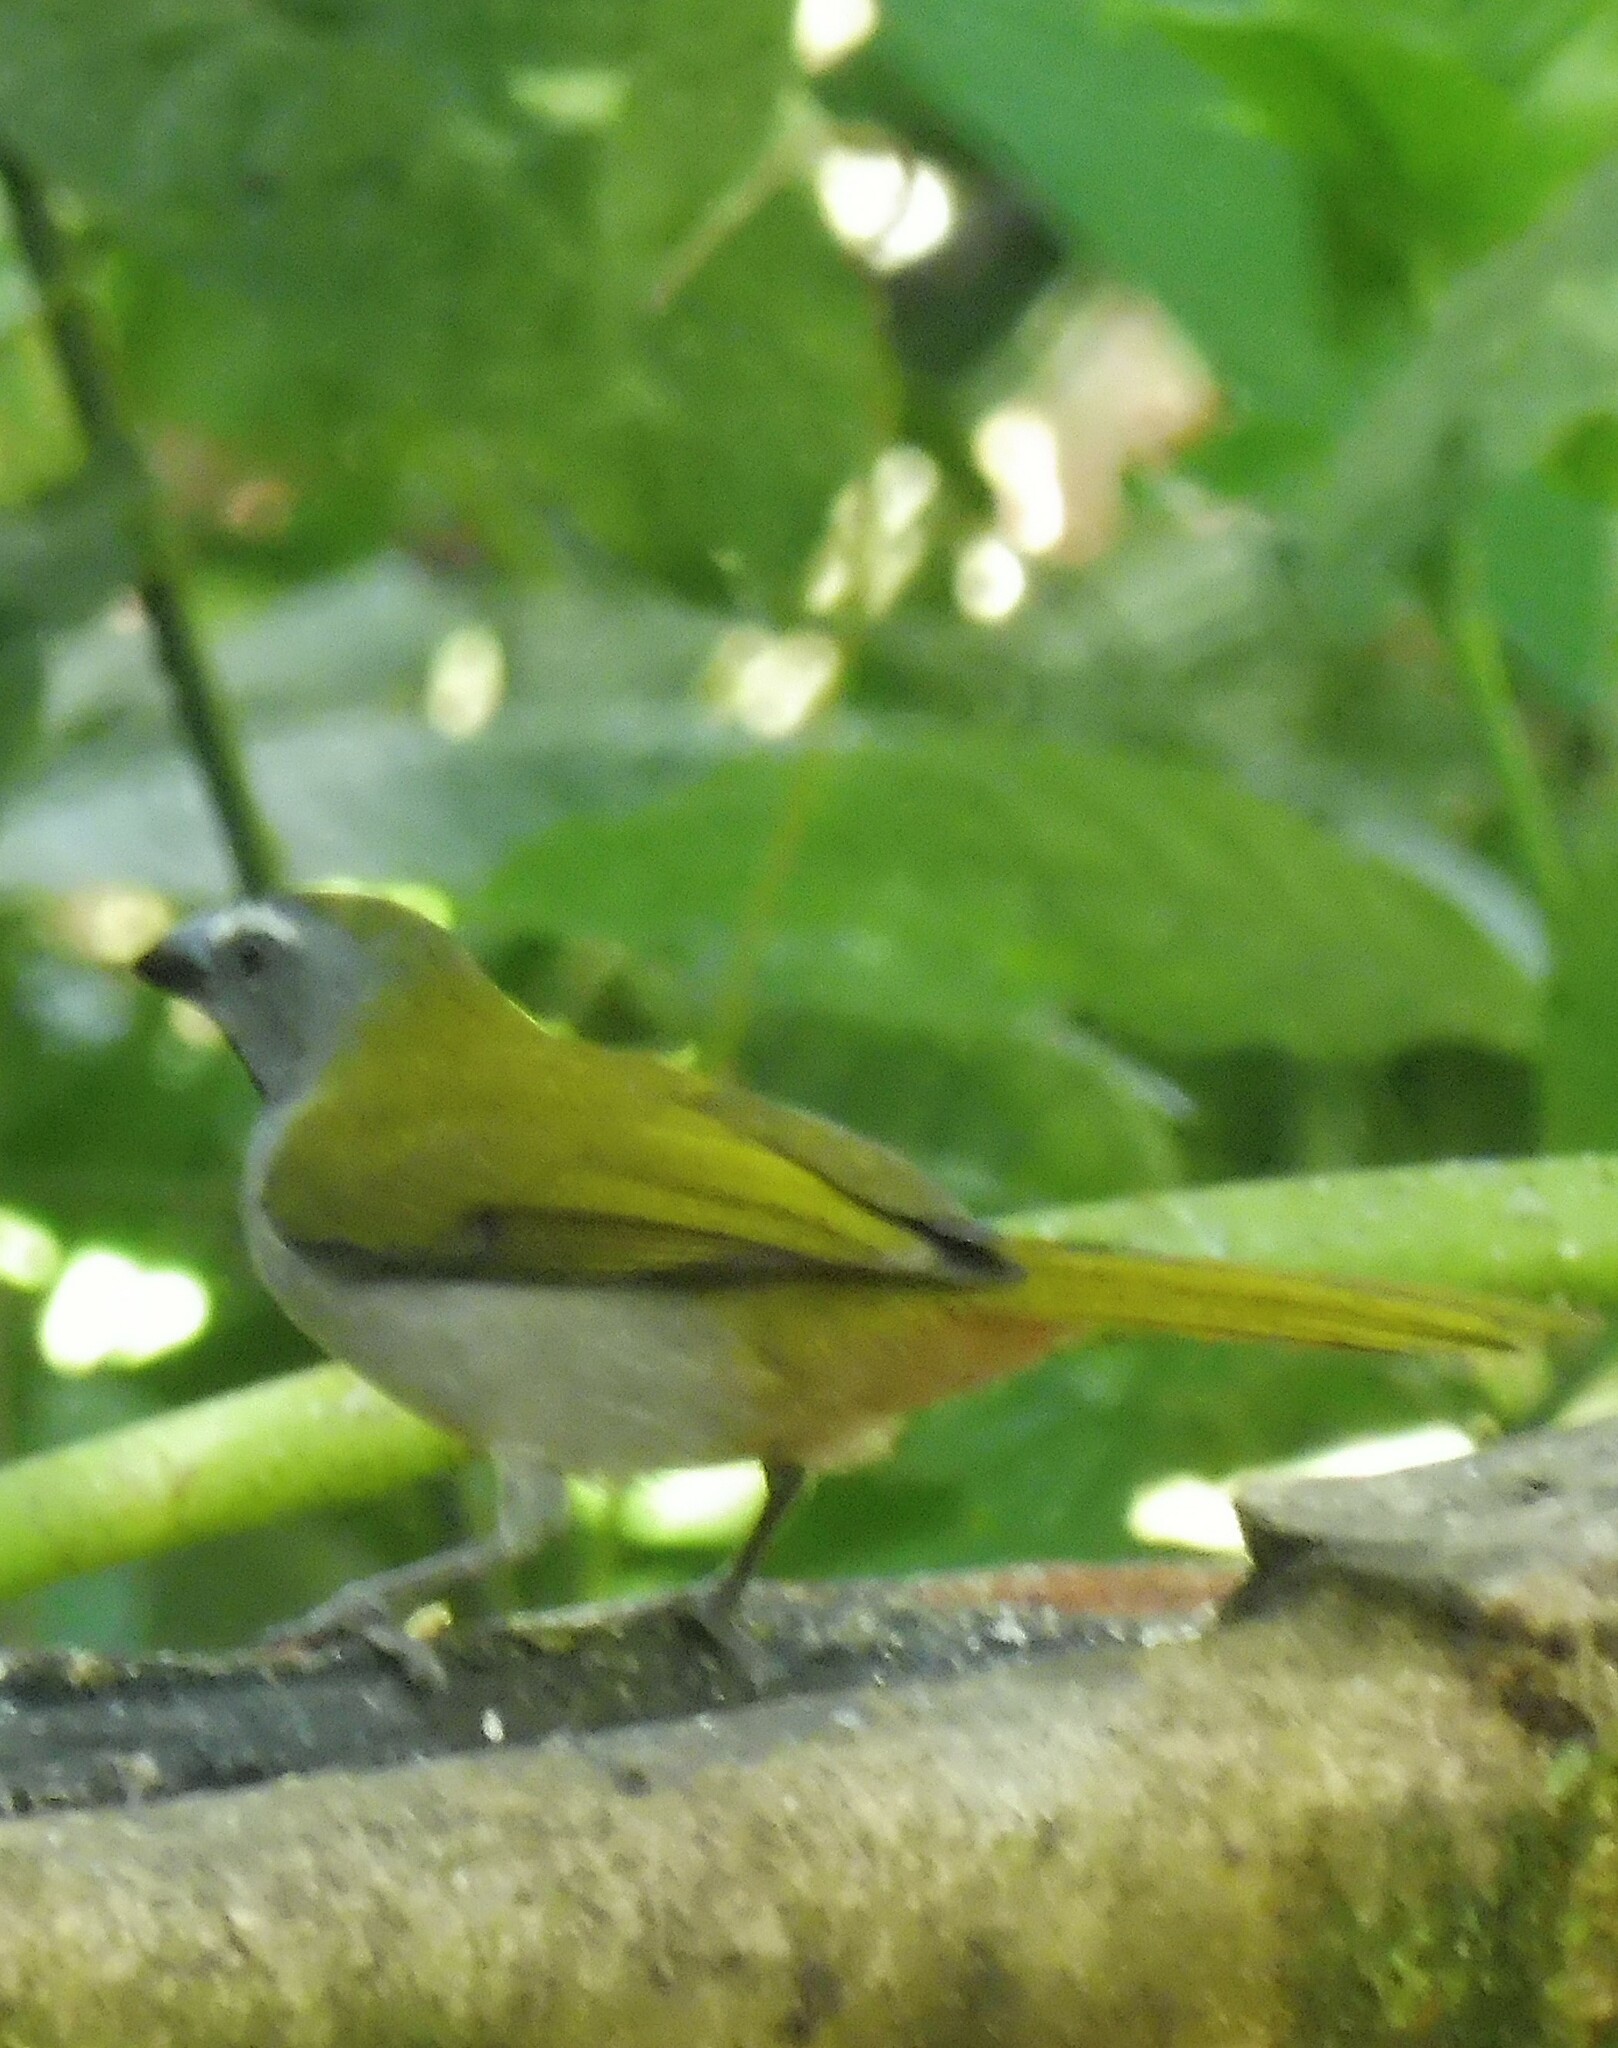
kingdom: Animalia
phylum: Chordata
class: Aves
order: Passeriformes
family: Thraupidae
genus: Saltator
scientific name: Saltator maximus
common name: Buff-throated saltator
